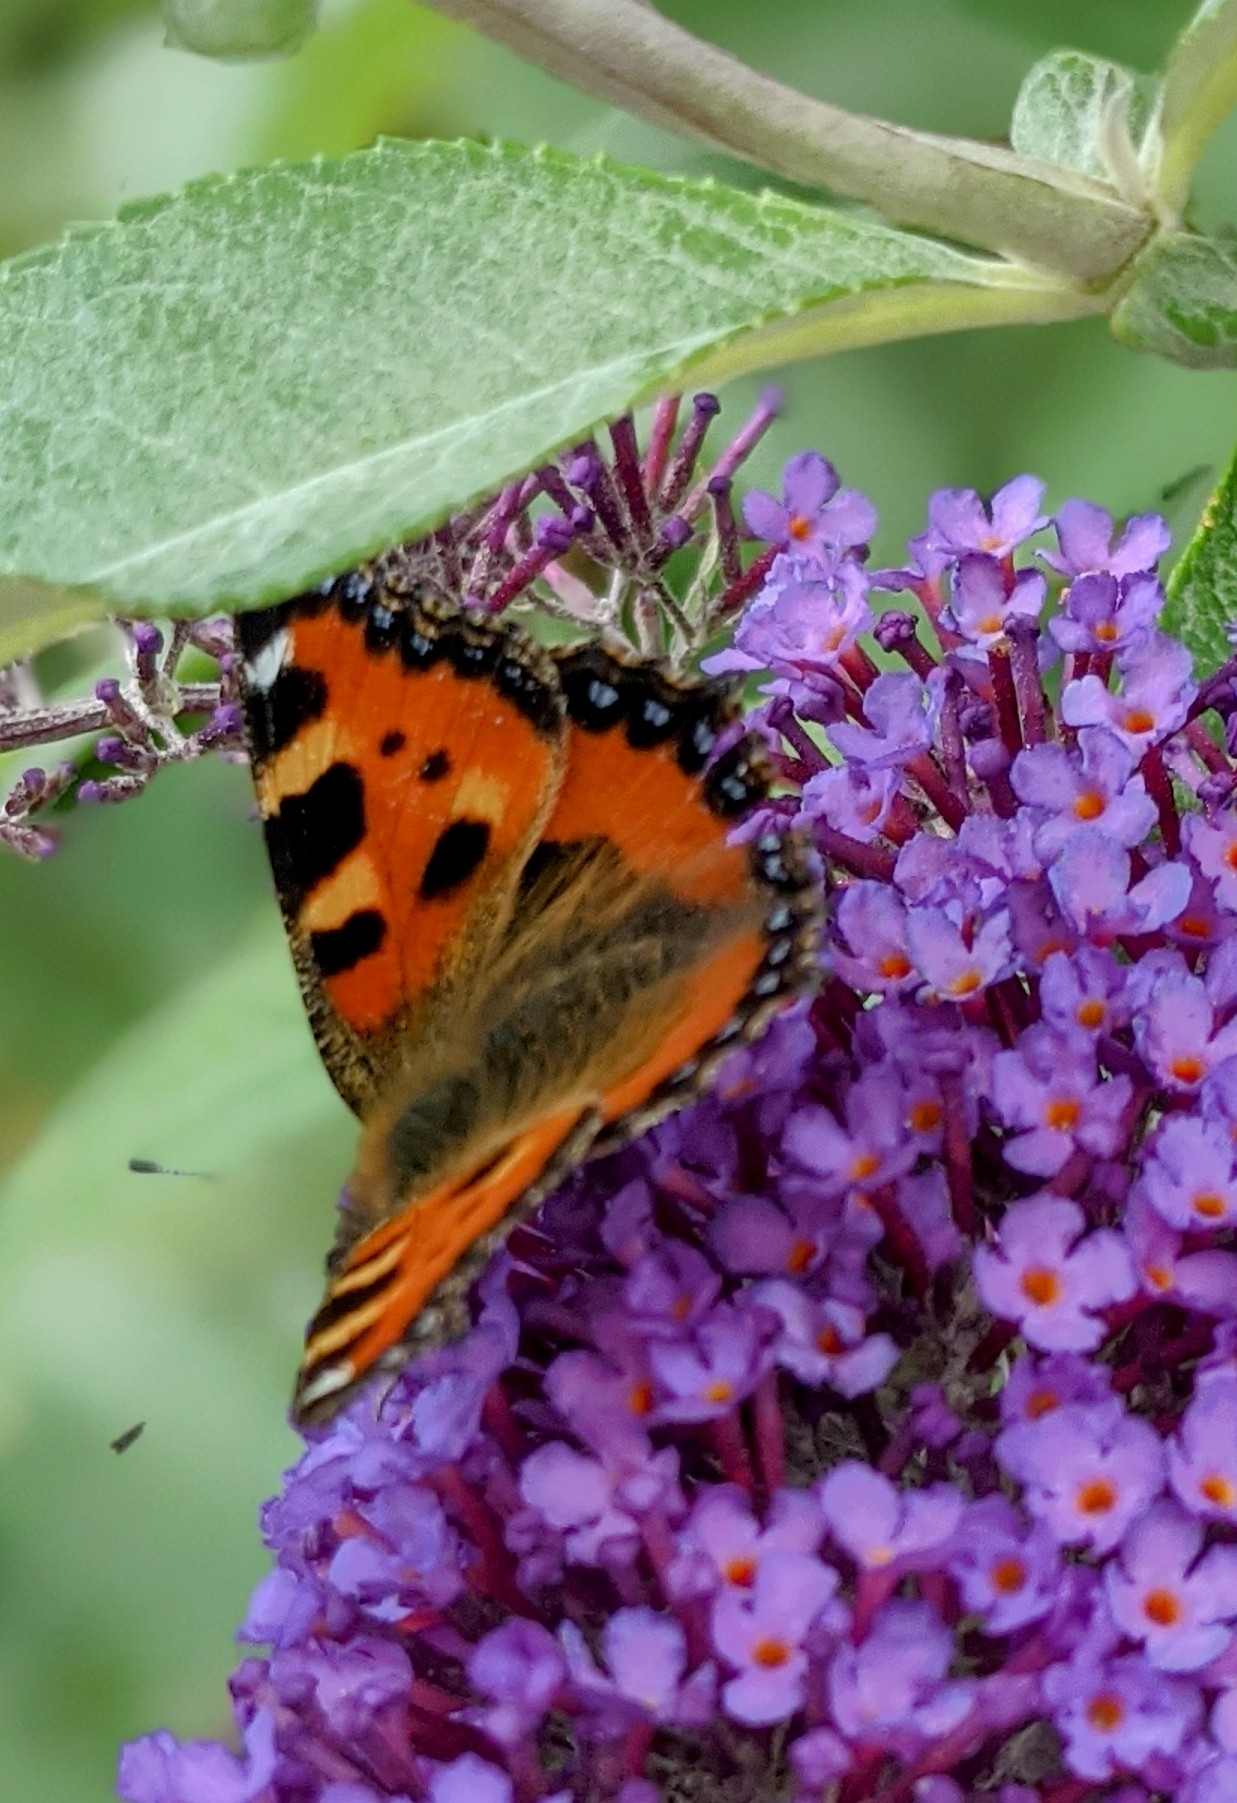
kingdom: Animalia
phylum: Arthropoda
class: Insecta
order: Lepidoptera
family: Nymphalidae
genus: Aglais
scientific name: Aglais urticae
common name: Small tortoiseshell
